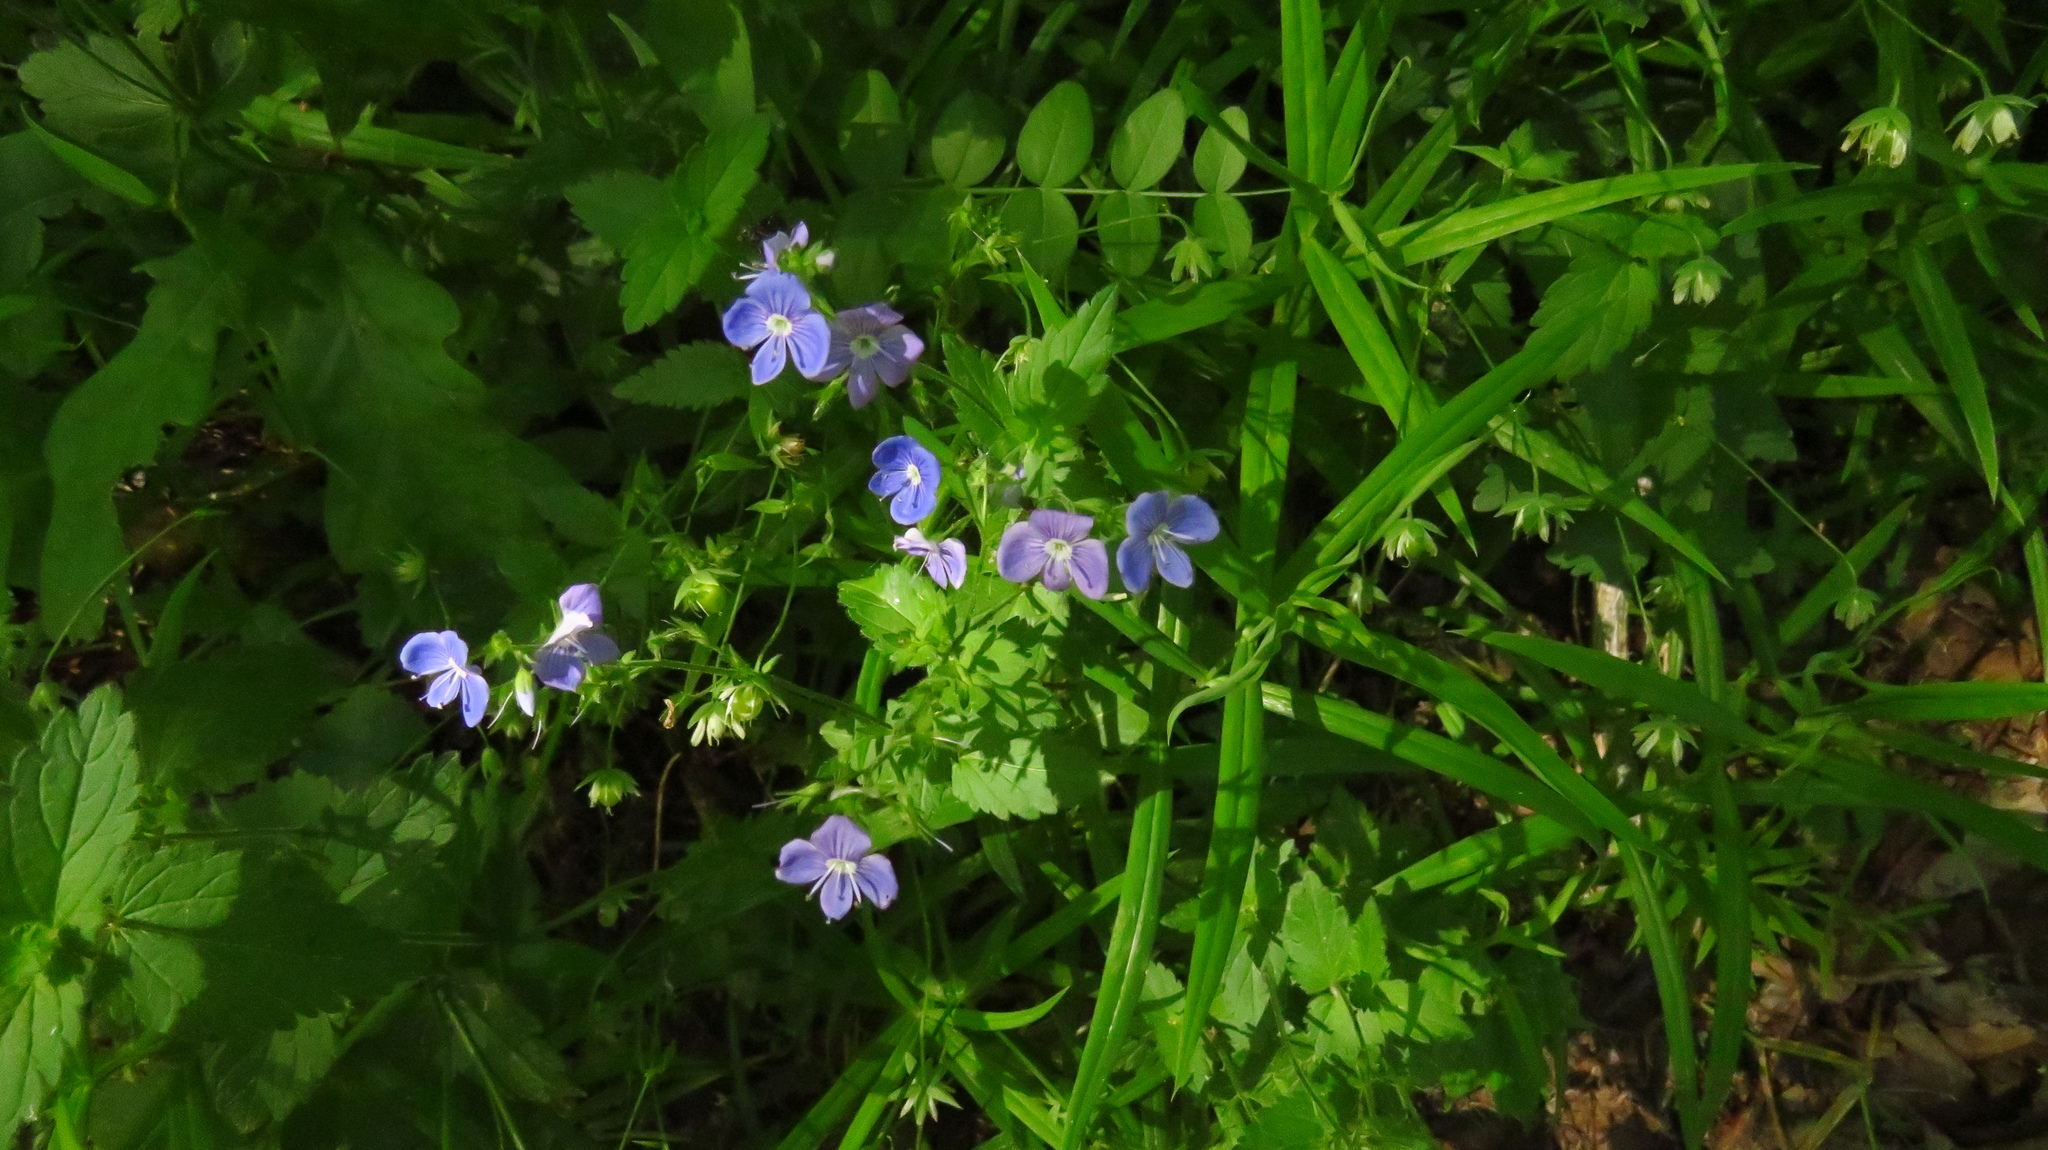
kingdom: Plantae
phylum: Tracheophyta
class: Magnoliopsida
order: Lamiales
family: Plantaginaceae
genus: Veronica
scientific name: Veronica chamaedrys
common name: Germander speedwell
